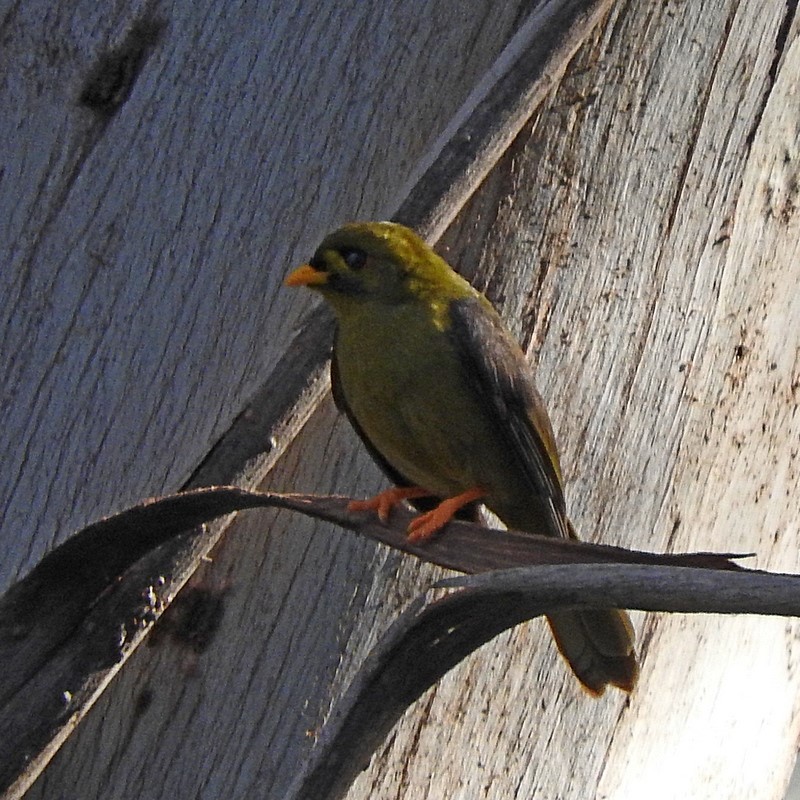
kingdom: Animalia
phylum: Chordata
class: Aves
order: Passeriformes
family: Meliphagidae
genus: Manorina
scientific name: Manorina melanophrys
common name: Bell miner
